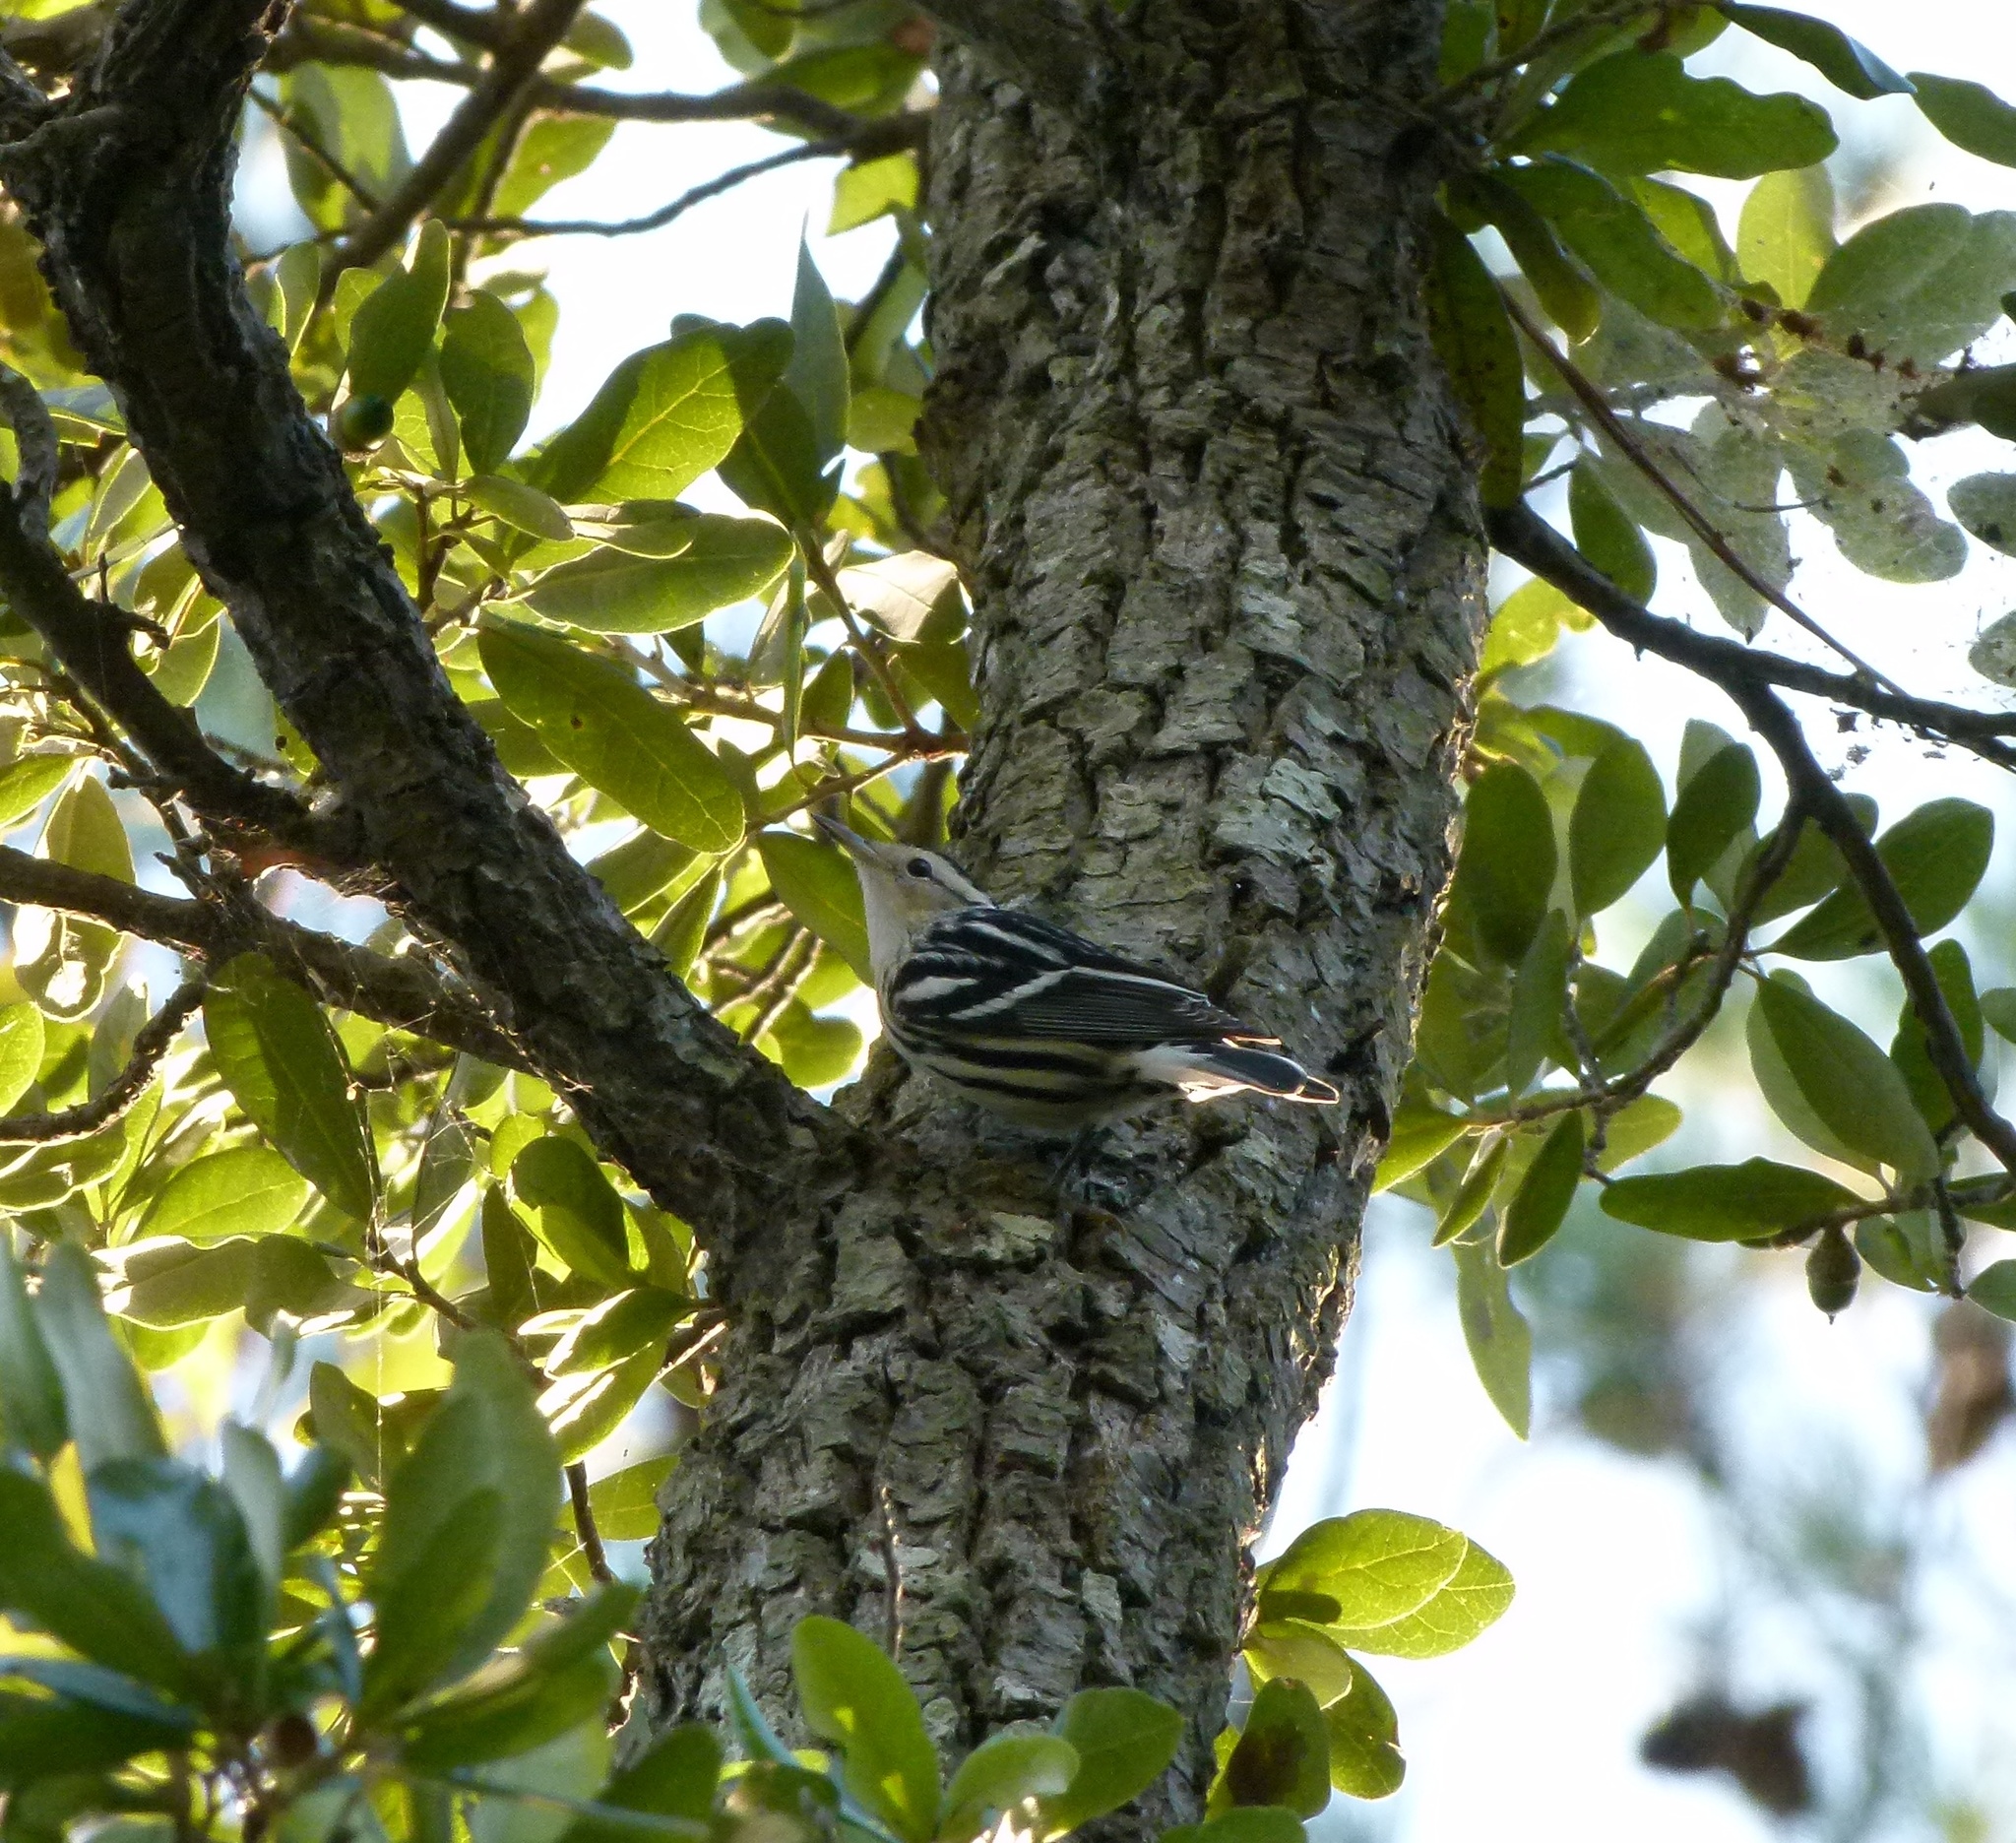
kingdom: Animalia
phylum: Chordata
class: Aves
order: Passeriformes
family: Parulidae
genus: Mniotilta
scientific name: Mniotilta varia
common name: Black-and-white warbler
